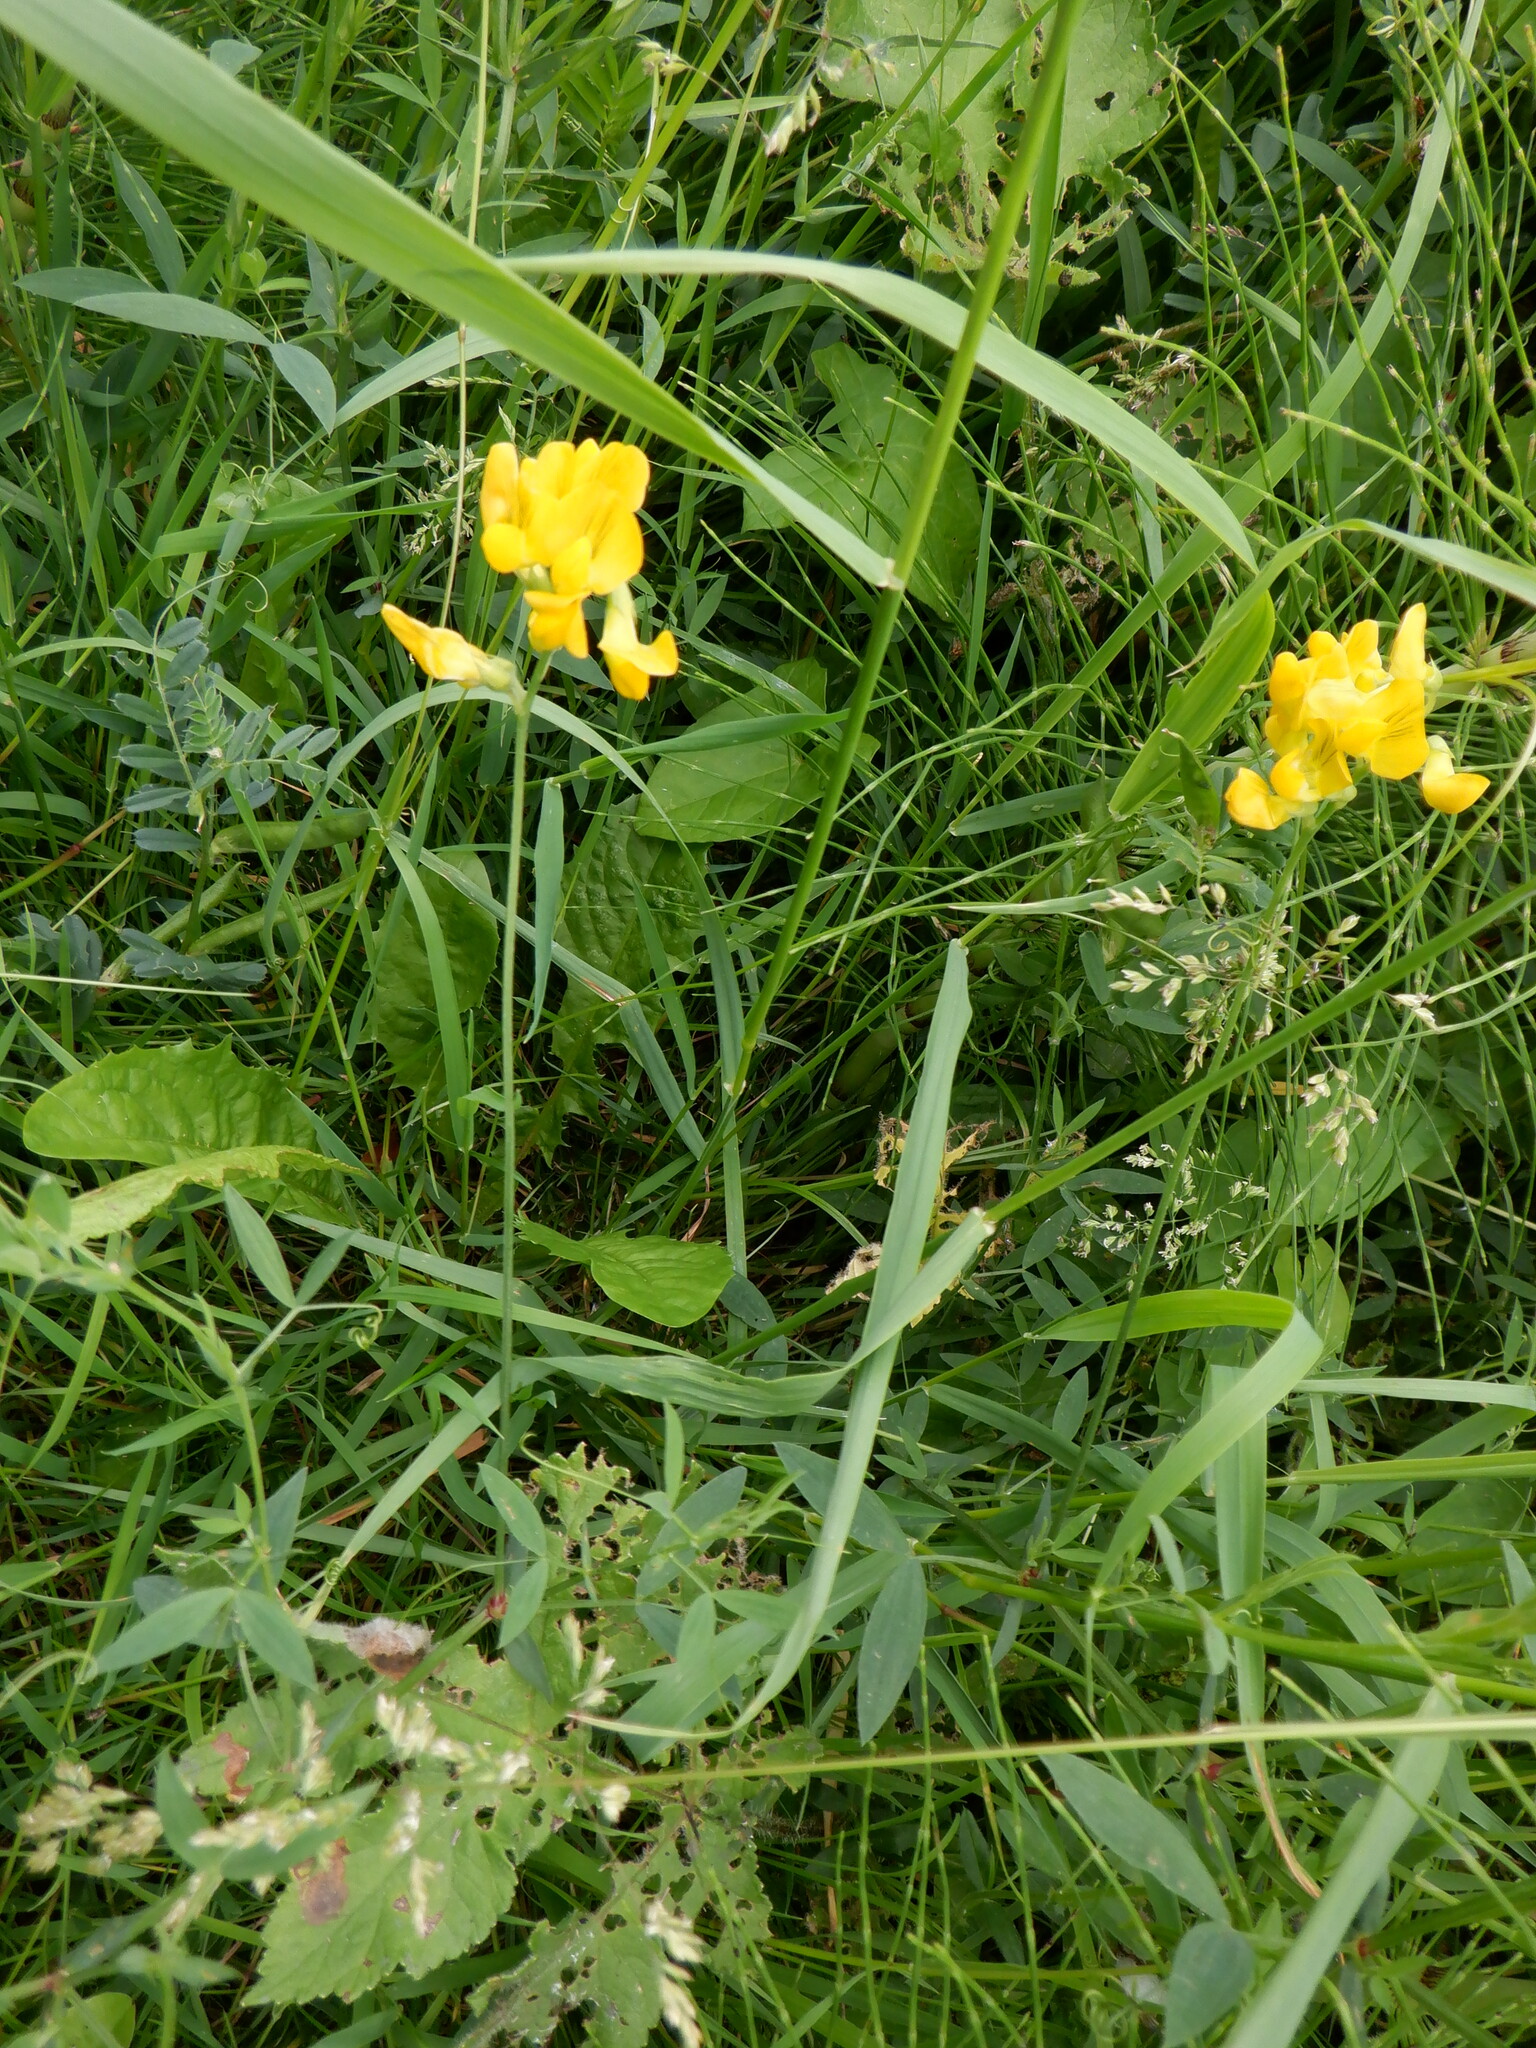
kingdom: Plantae
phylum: Tracheophyta
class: Magnoliopsida
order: Fabales
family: Fabaceae
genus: Lathyrus
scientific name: Lathyrus pratensis
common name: Meadow vetchling
